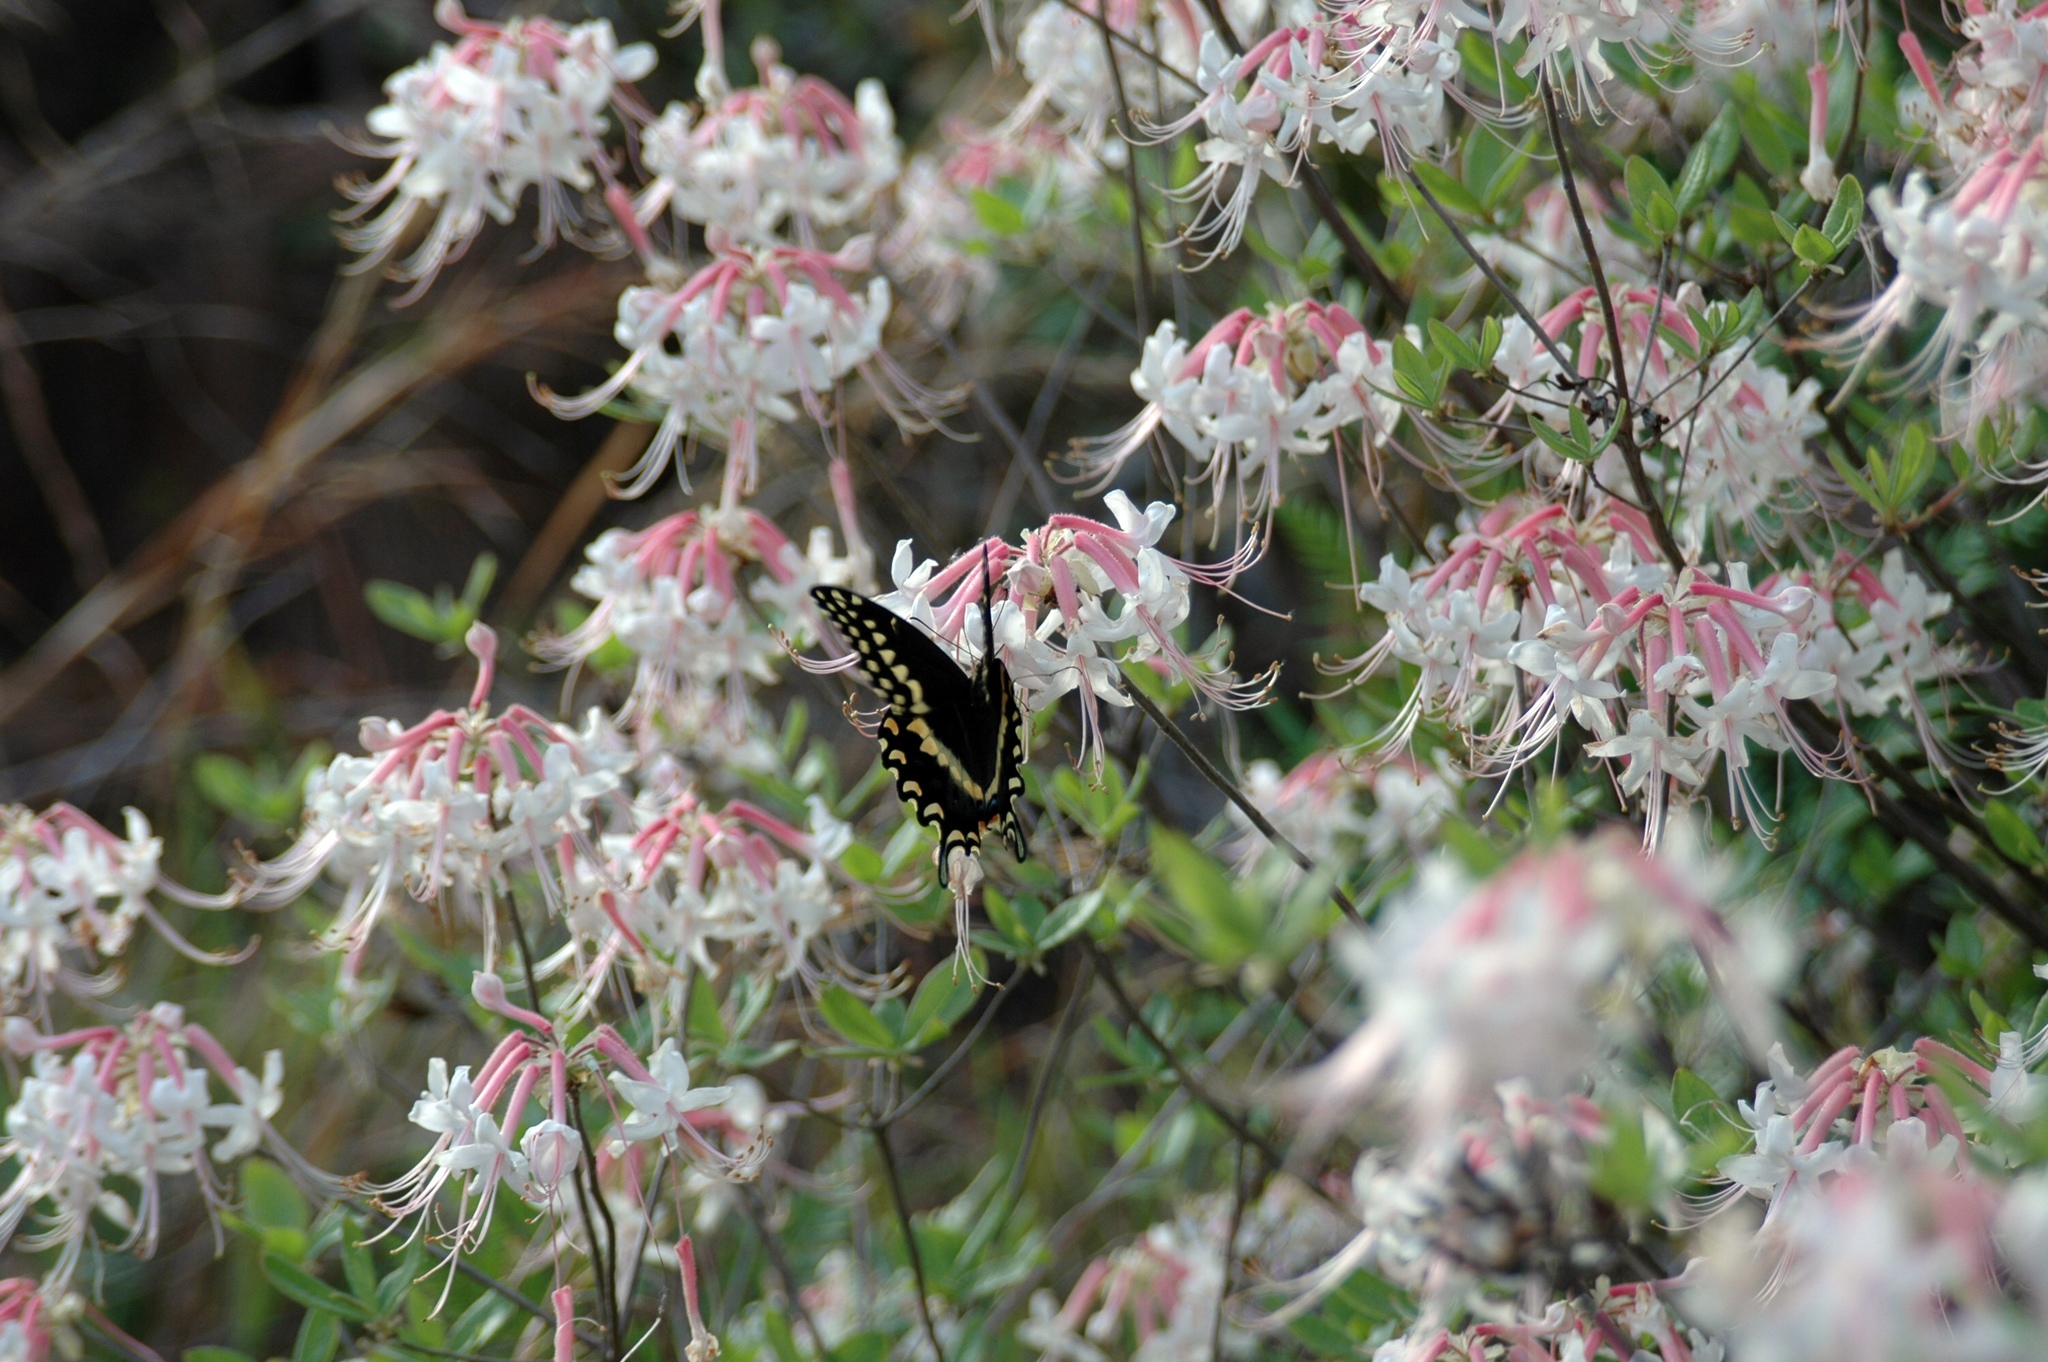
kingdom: Animalia
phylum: Arthropoda
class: Insecta
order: Lepidoptera
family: Papilionidae
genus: Papilio
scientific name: Papilio polyxenes
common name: Black swallowtail
